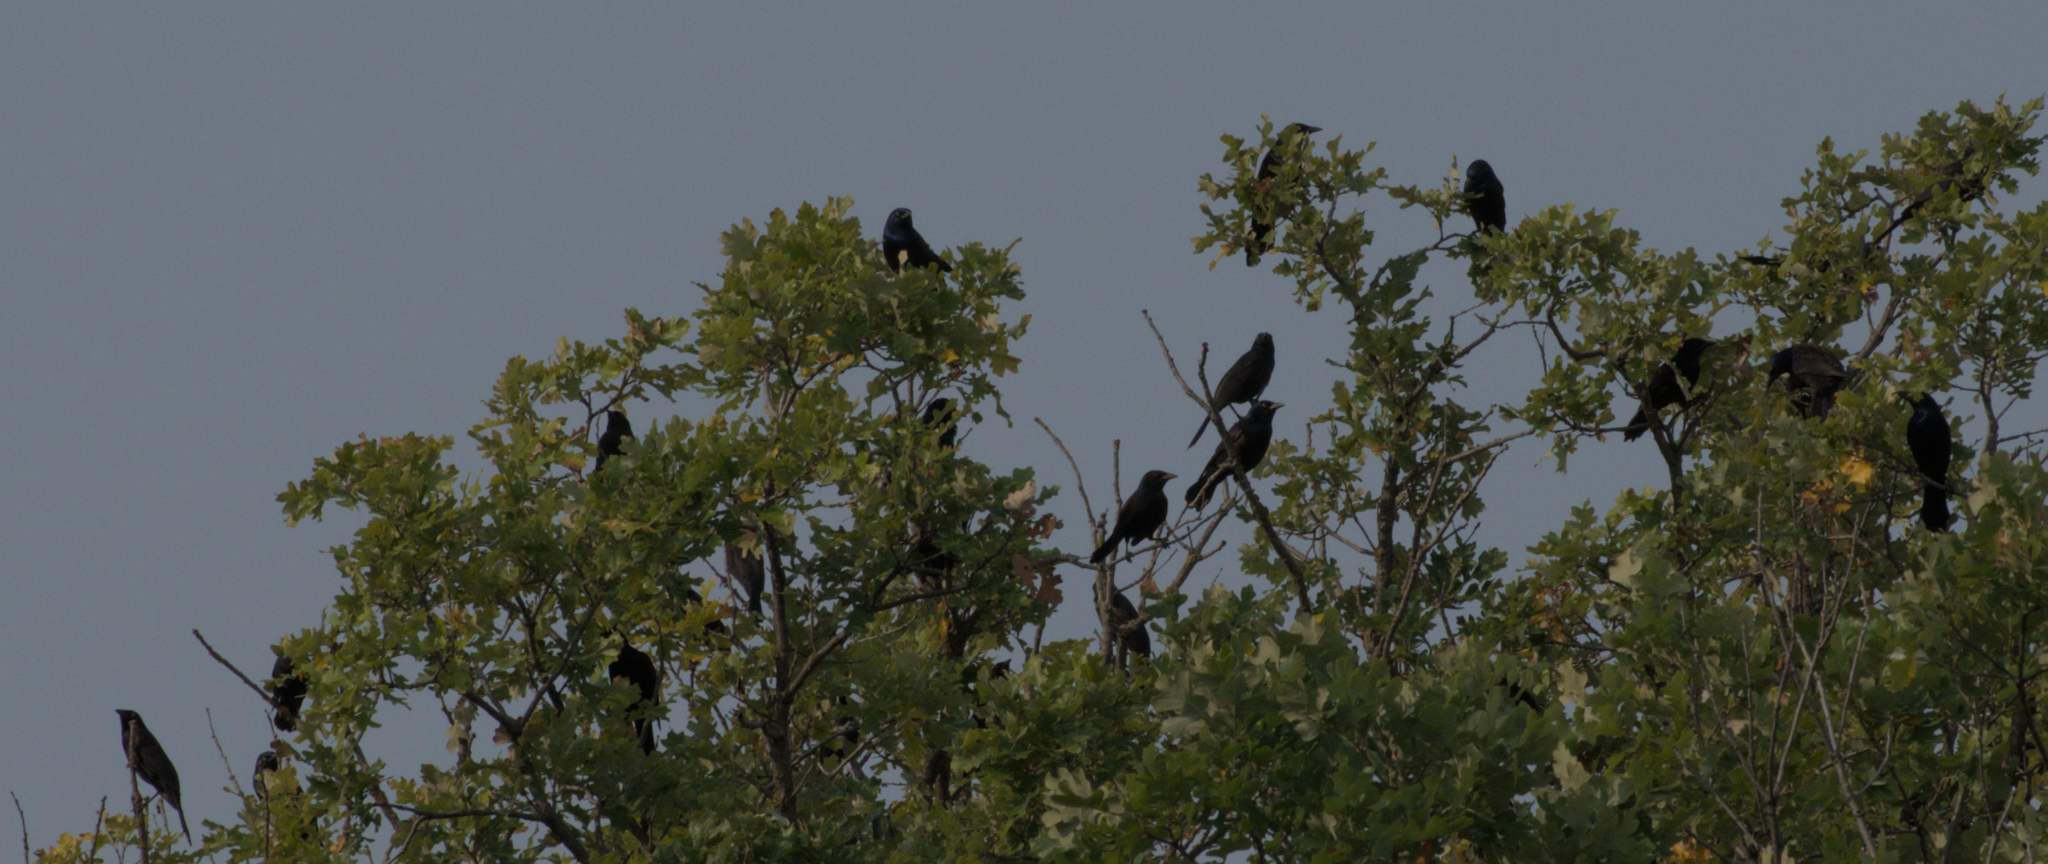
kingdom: Animalia
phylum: Chordata
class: Aves
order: Passeriformes
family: Icteridae
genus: Quiscalus
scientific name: Quiscalus quiscula
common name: Common grackle
